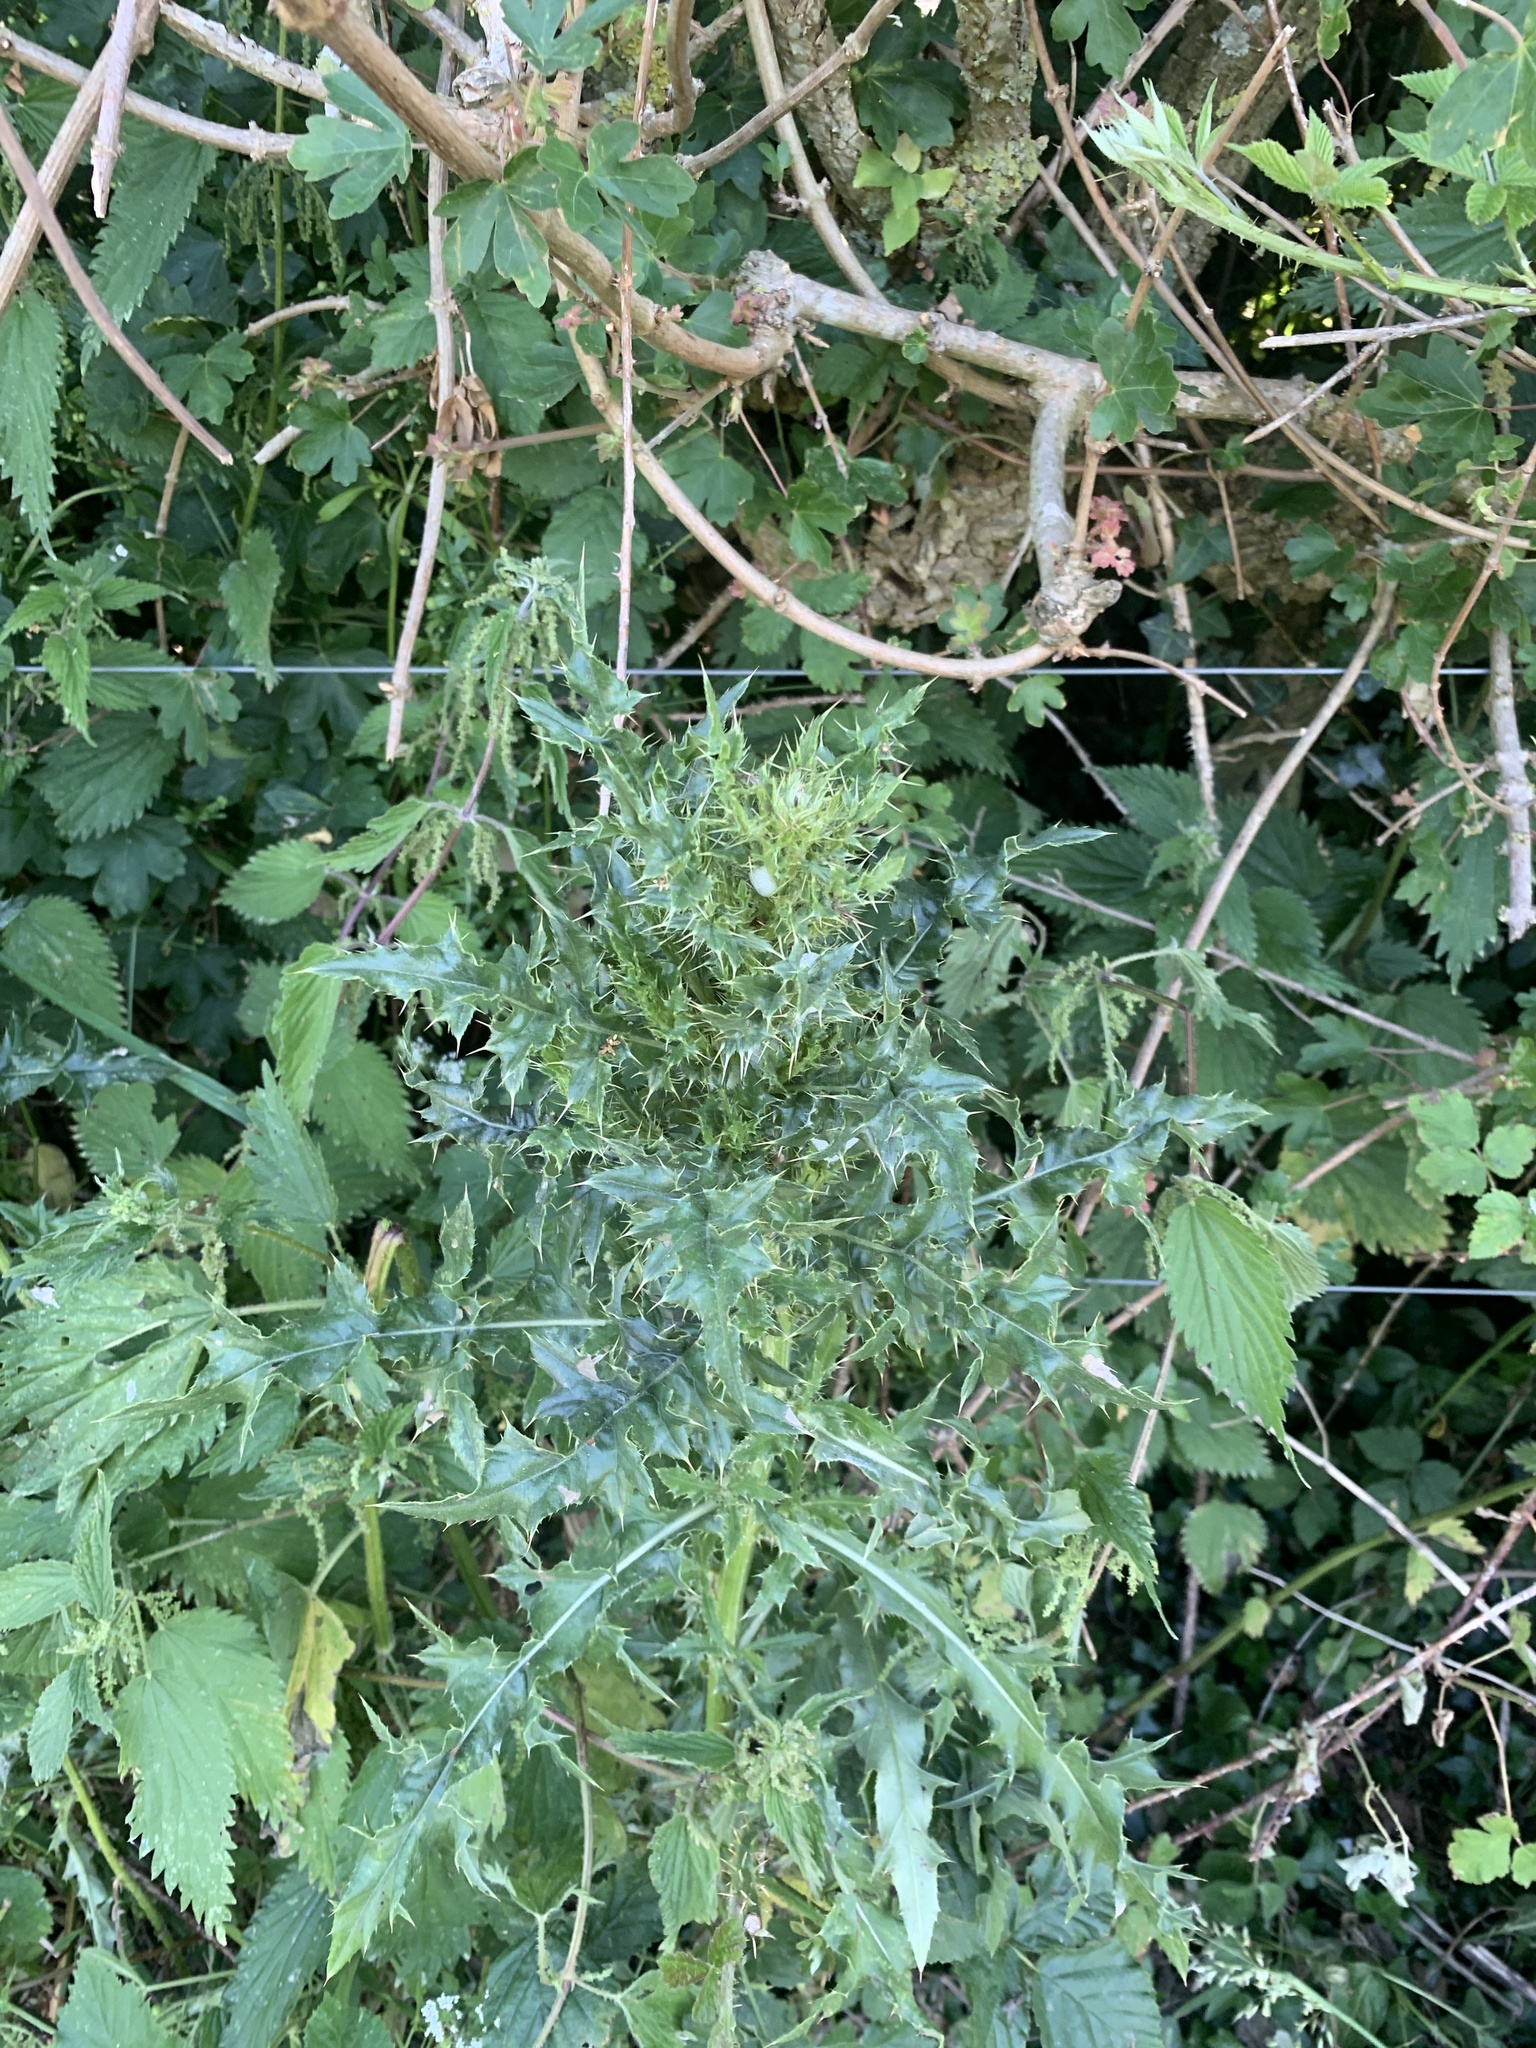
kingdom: Plantae
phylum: Tracheophyta
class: Magnoliopsida
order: Asterales
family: Asteraceae
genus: Cirsium
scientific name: Cirsium arvense
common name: Creeping thistle
